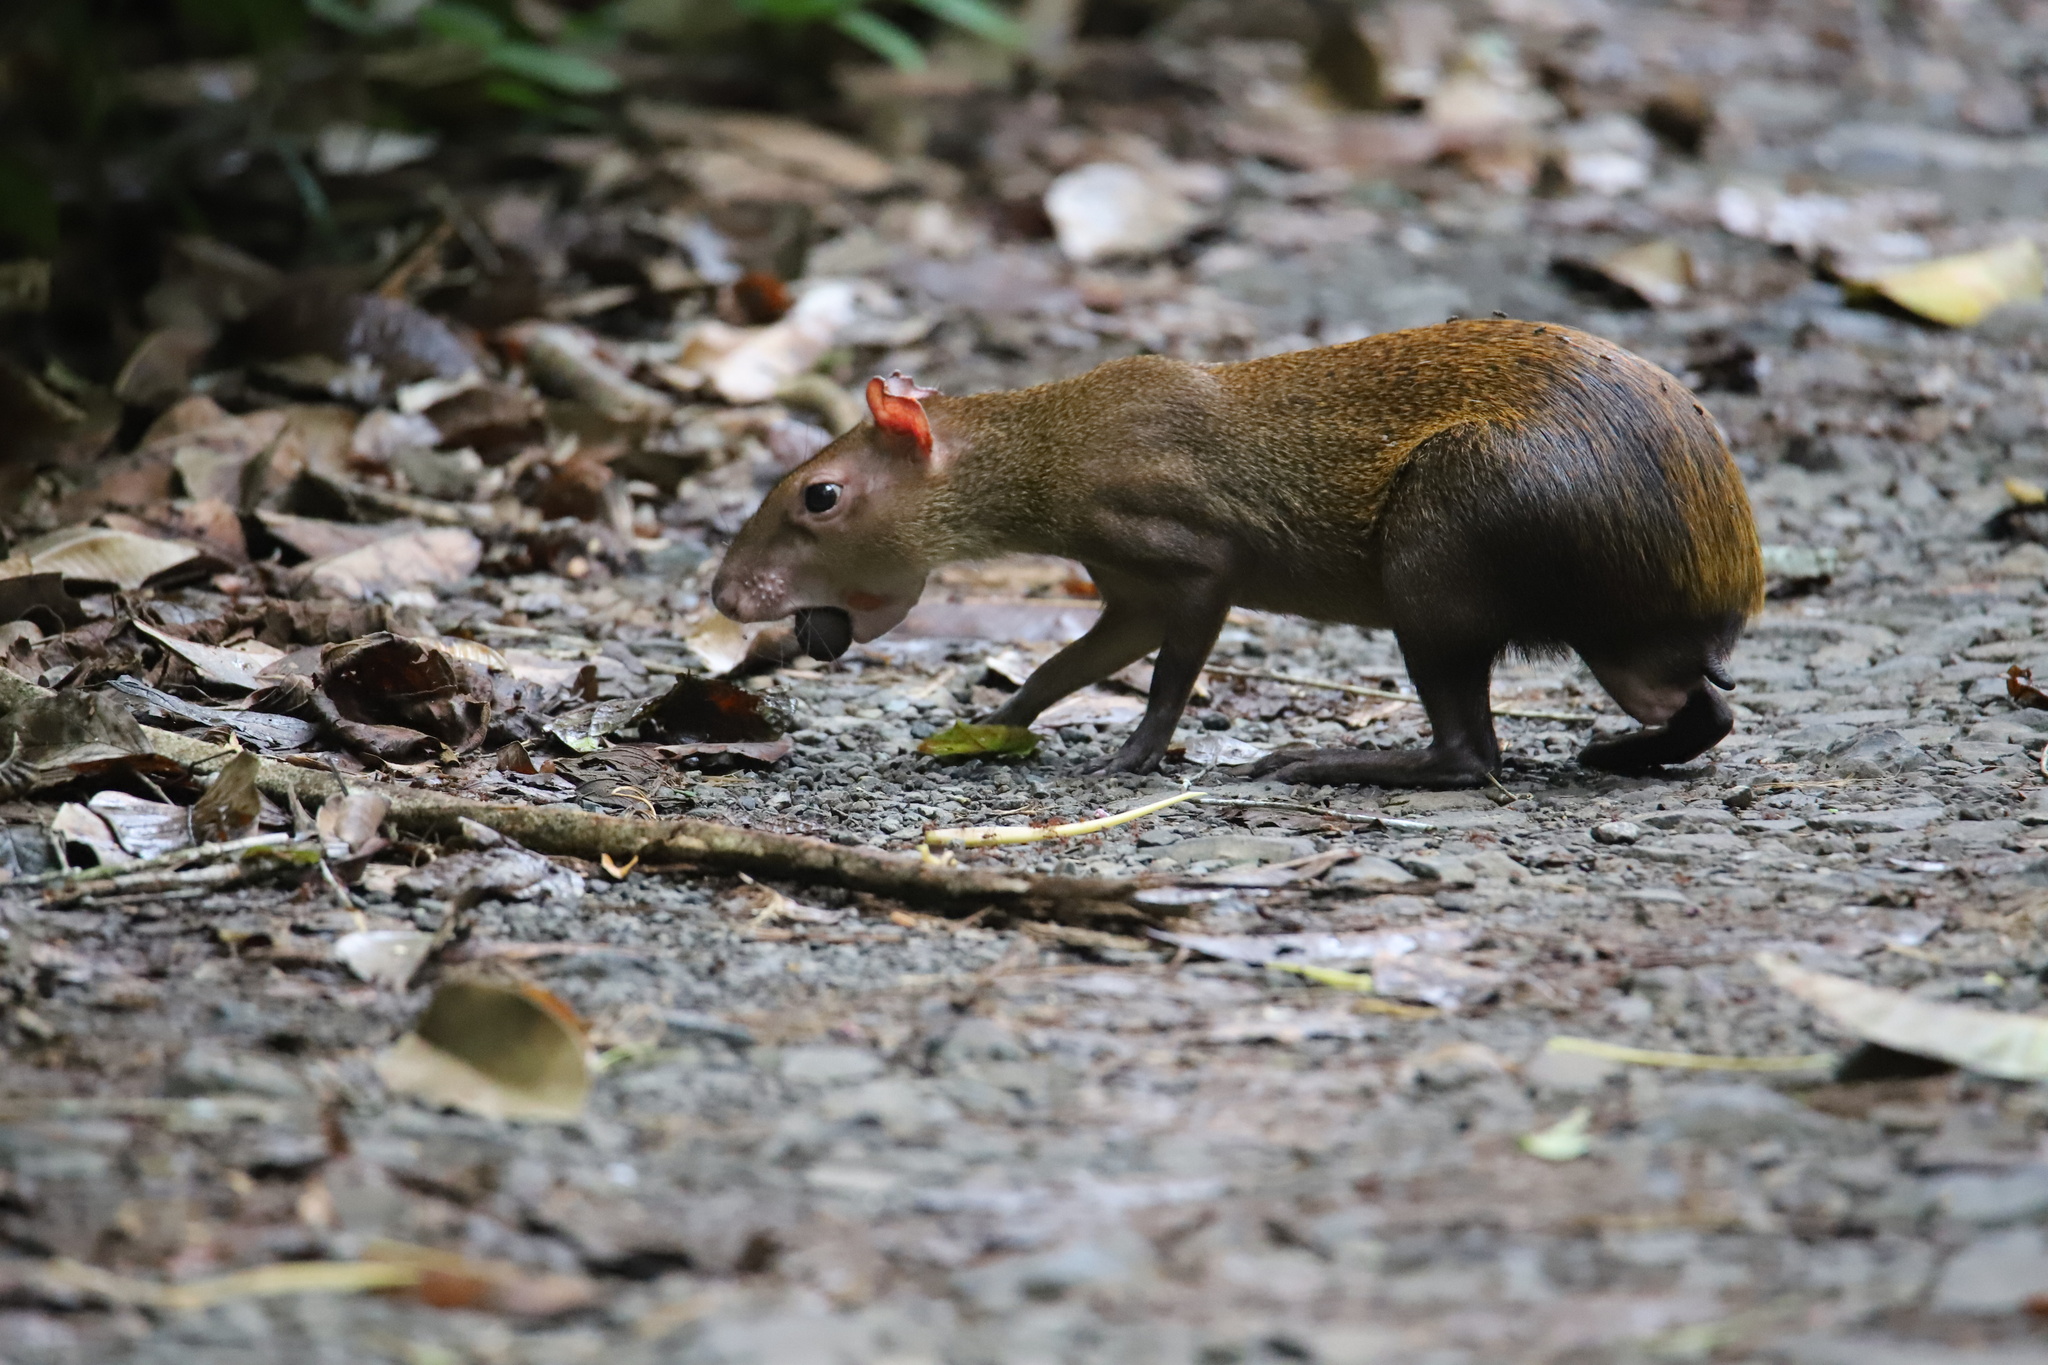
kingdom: Animalia
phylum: Chordata
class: Mammalia
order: Rodentia
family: Dasyproctidae
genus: Dasyprocta
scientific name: Dasyprocta punctata
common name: Central american agouti
